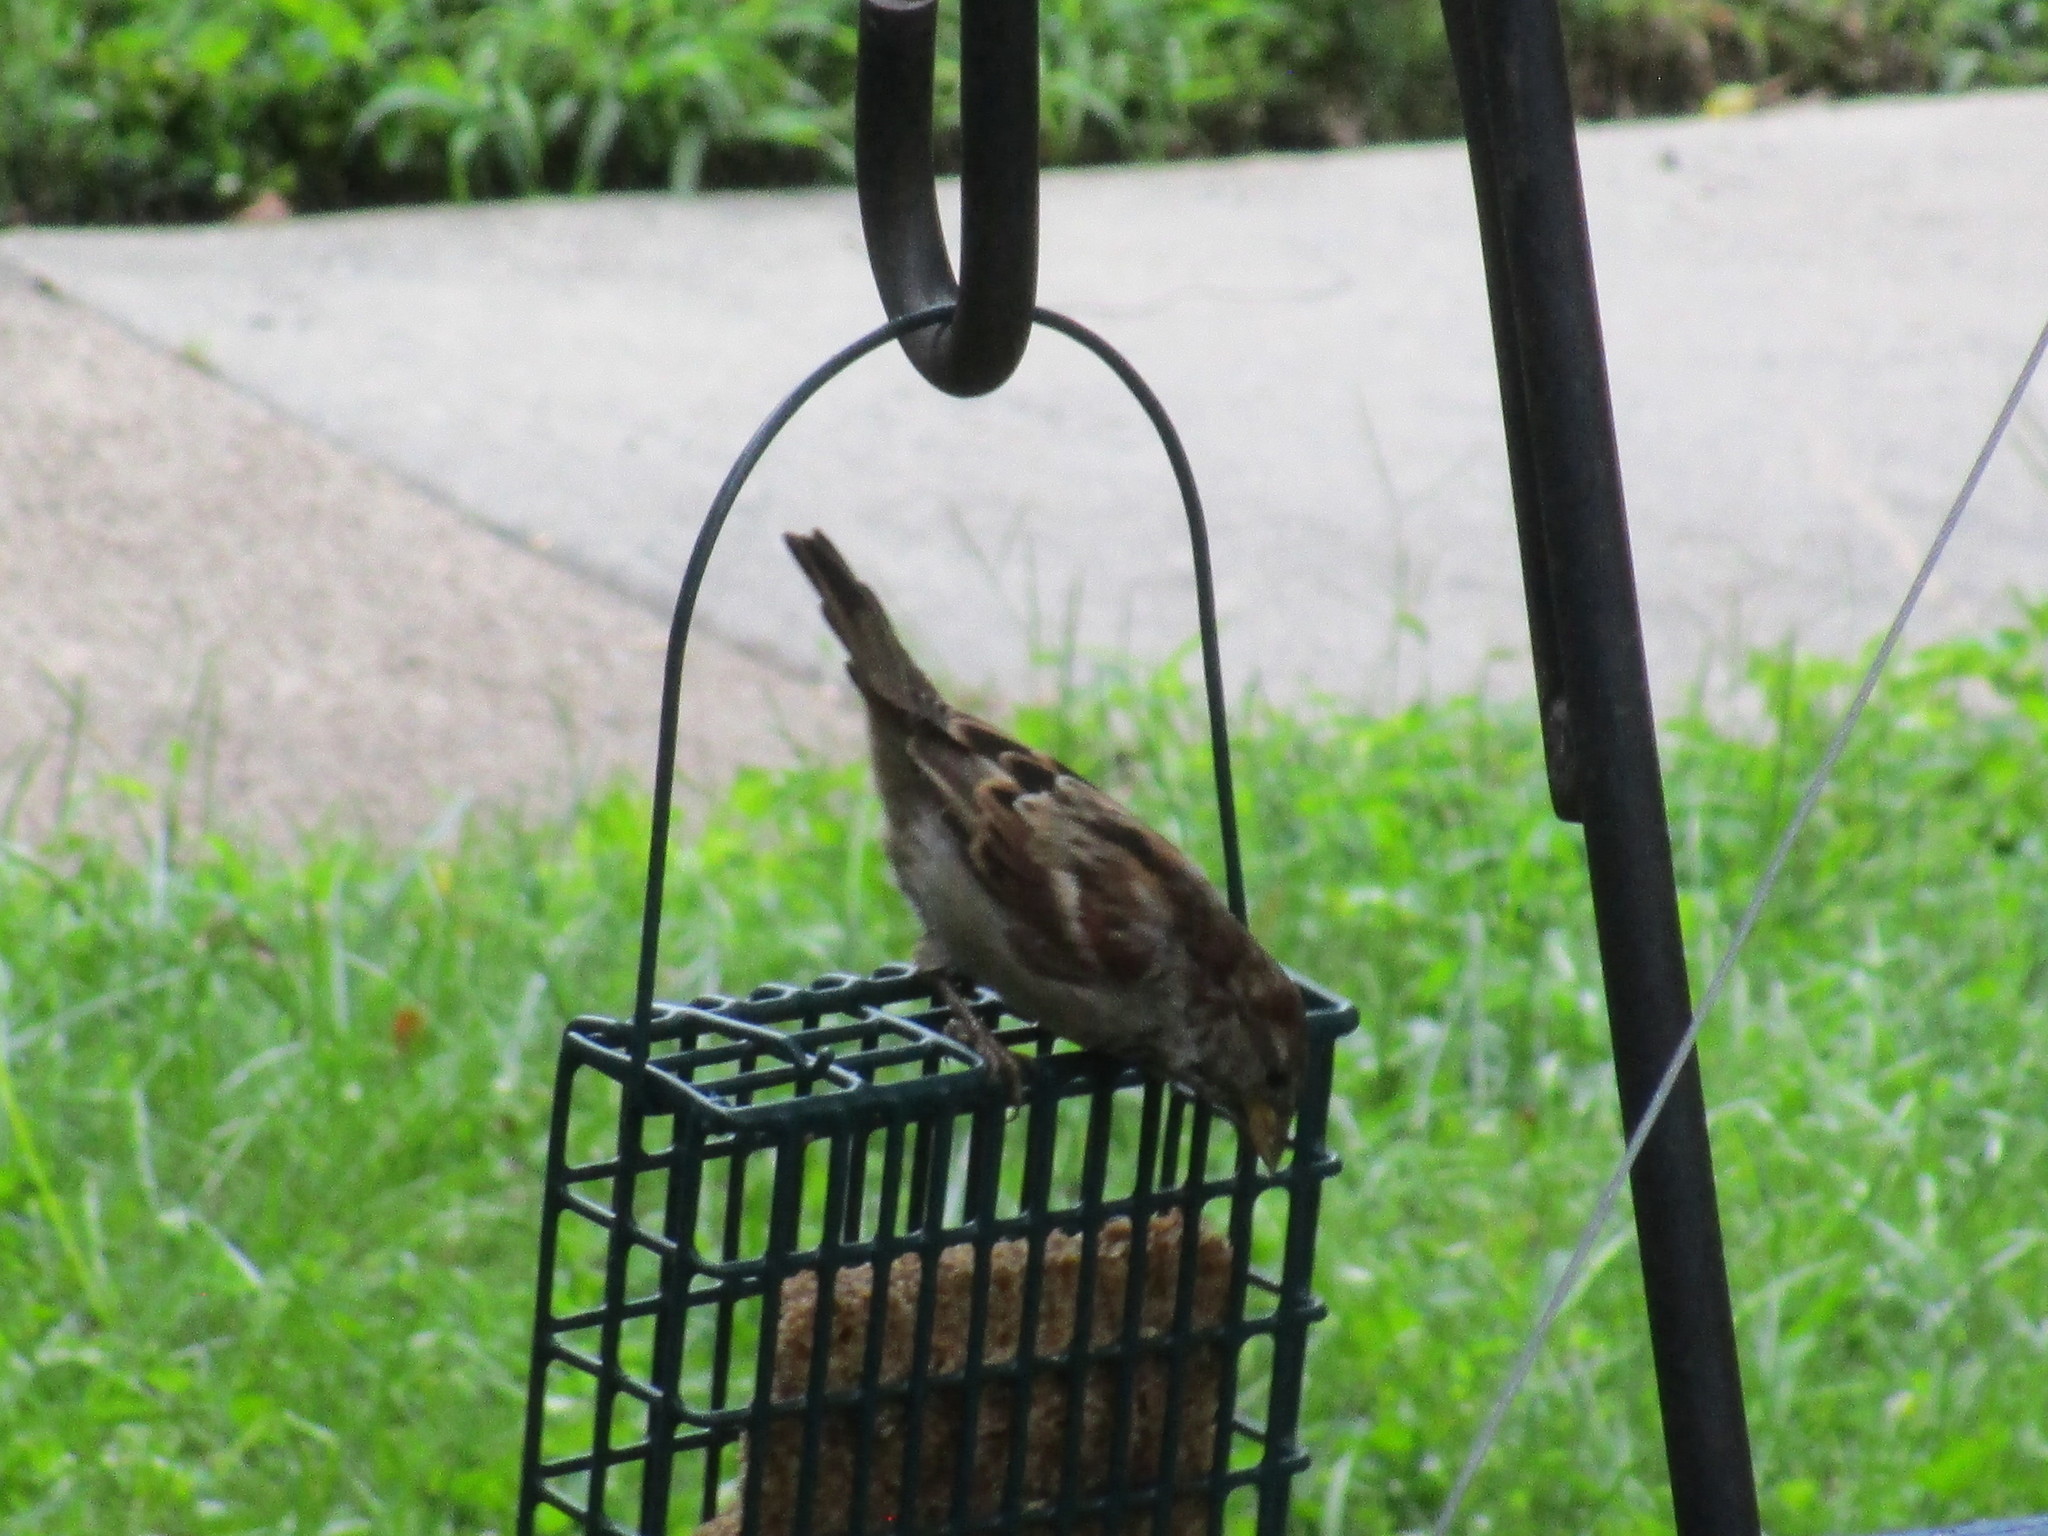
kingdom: Animalia
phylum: Chordata
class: Aves
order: Passeriformes
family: Passeridae
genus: Passer
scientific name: Passer domesticus
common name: House sparrow
